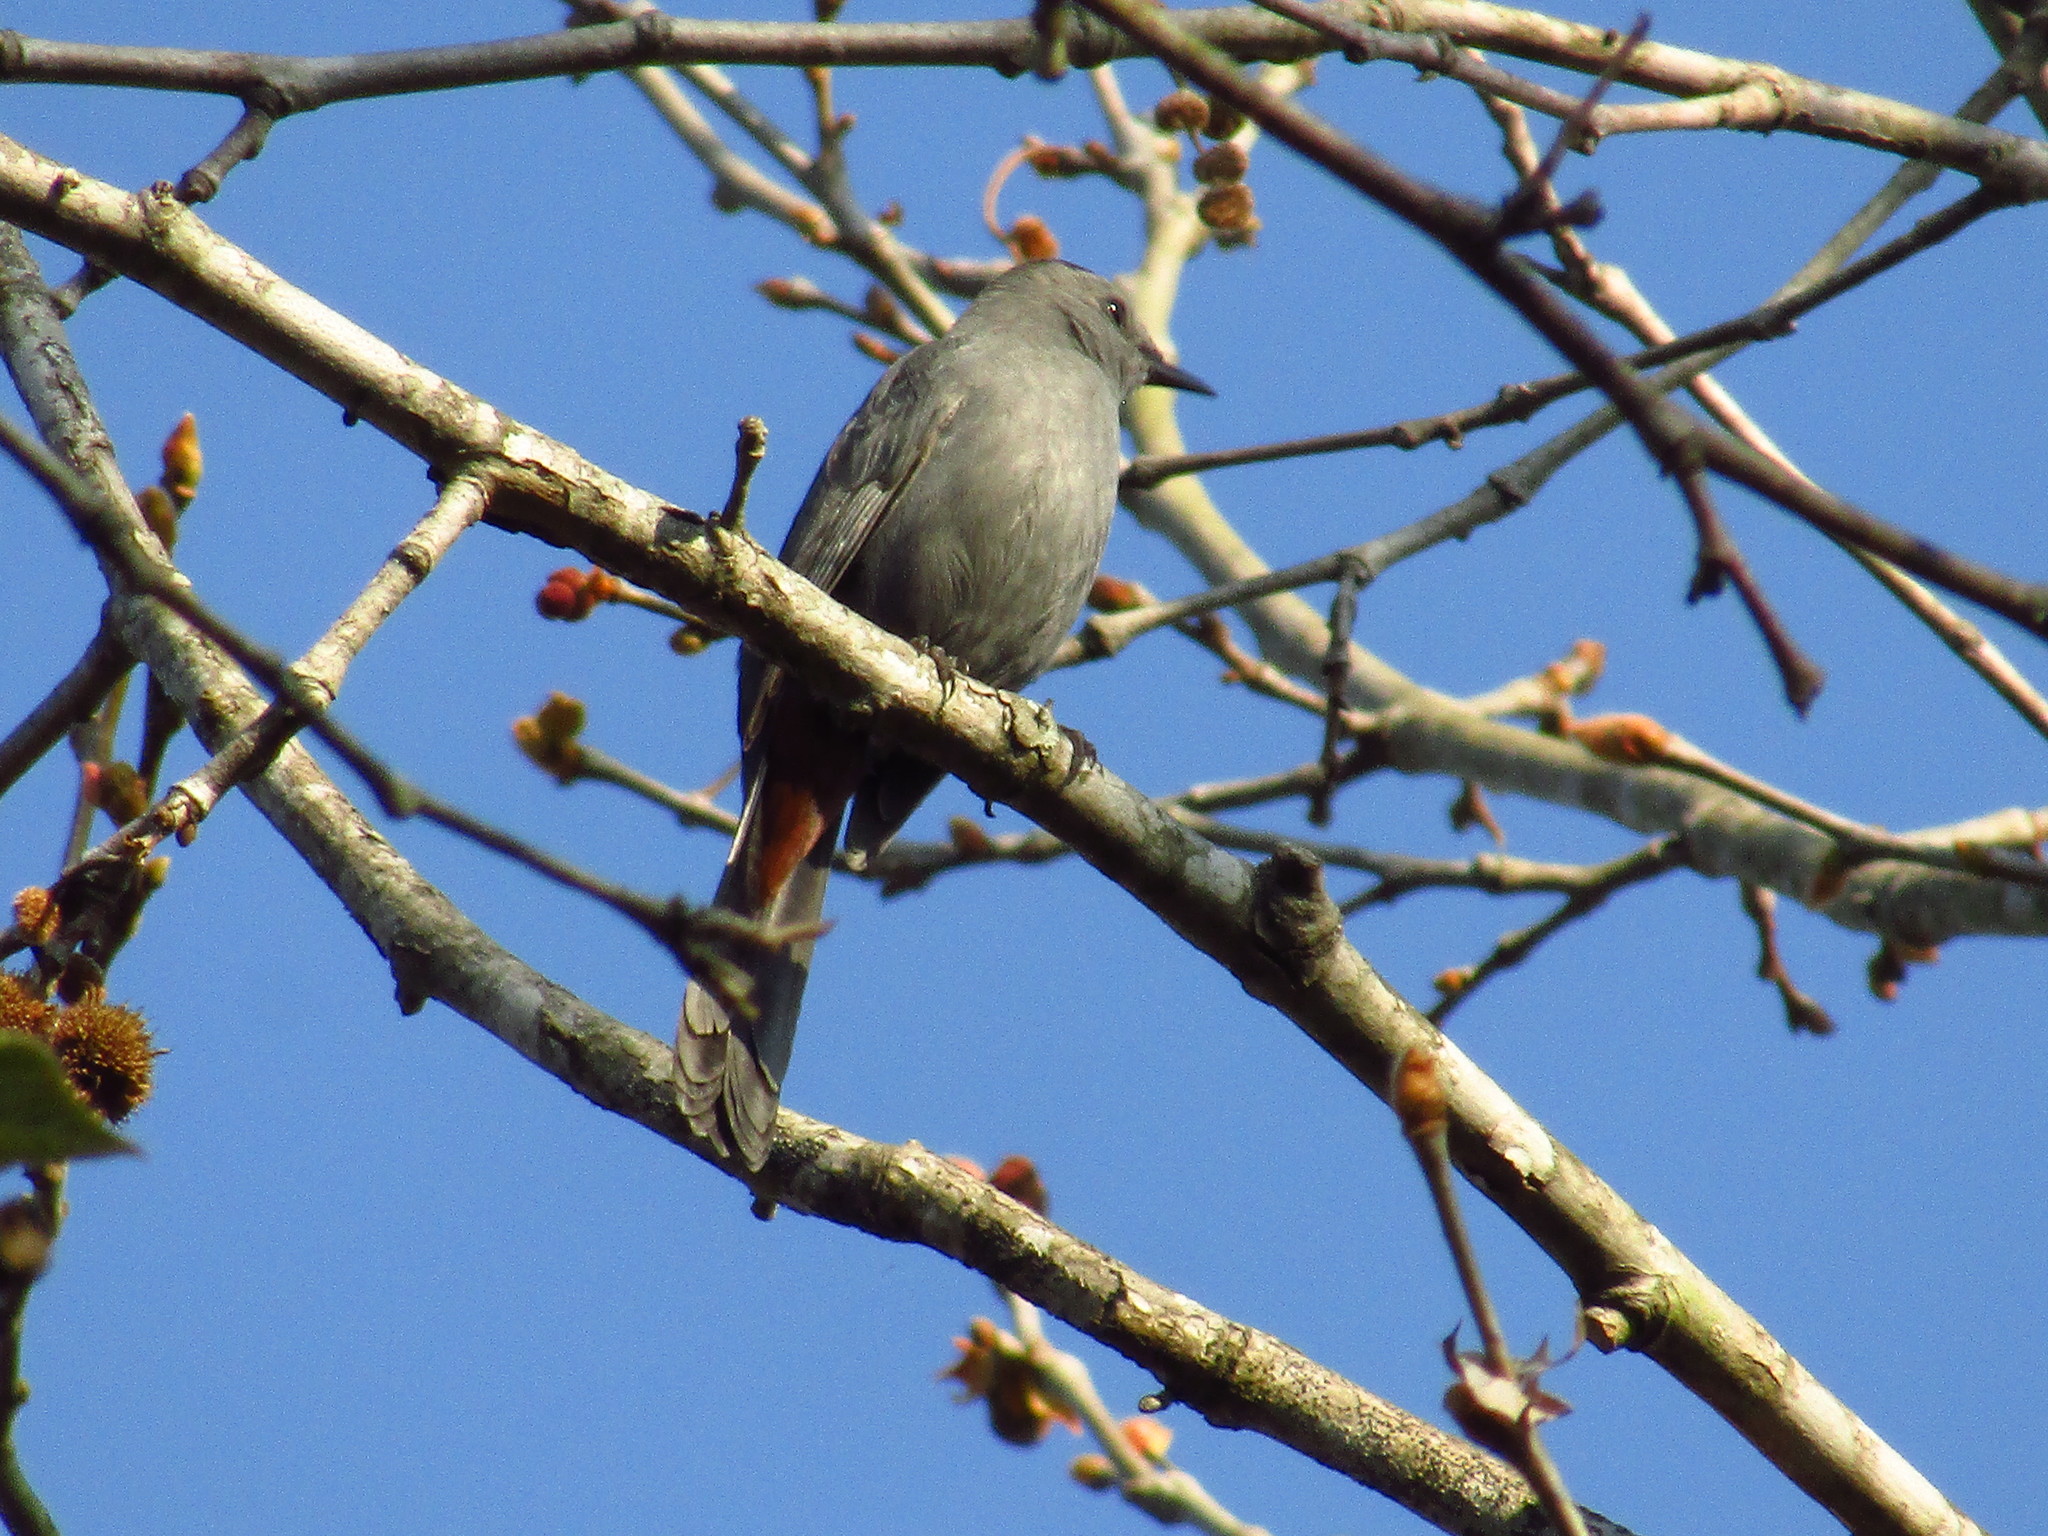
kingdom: Animalia
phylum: Chordata
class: Aves
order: Passeriformes
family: Mimidae
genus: Dumetella
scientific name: Dumetella carolinensis
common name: Gray catbird
